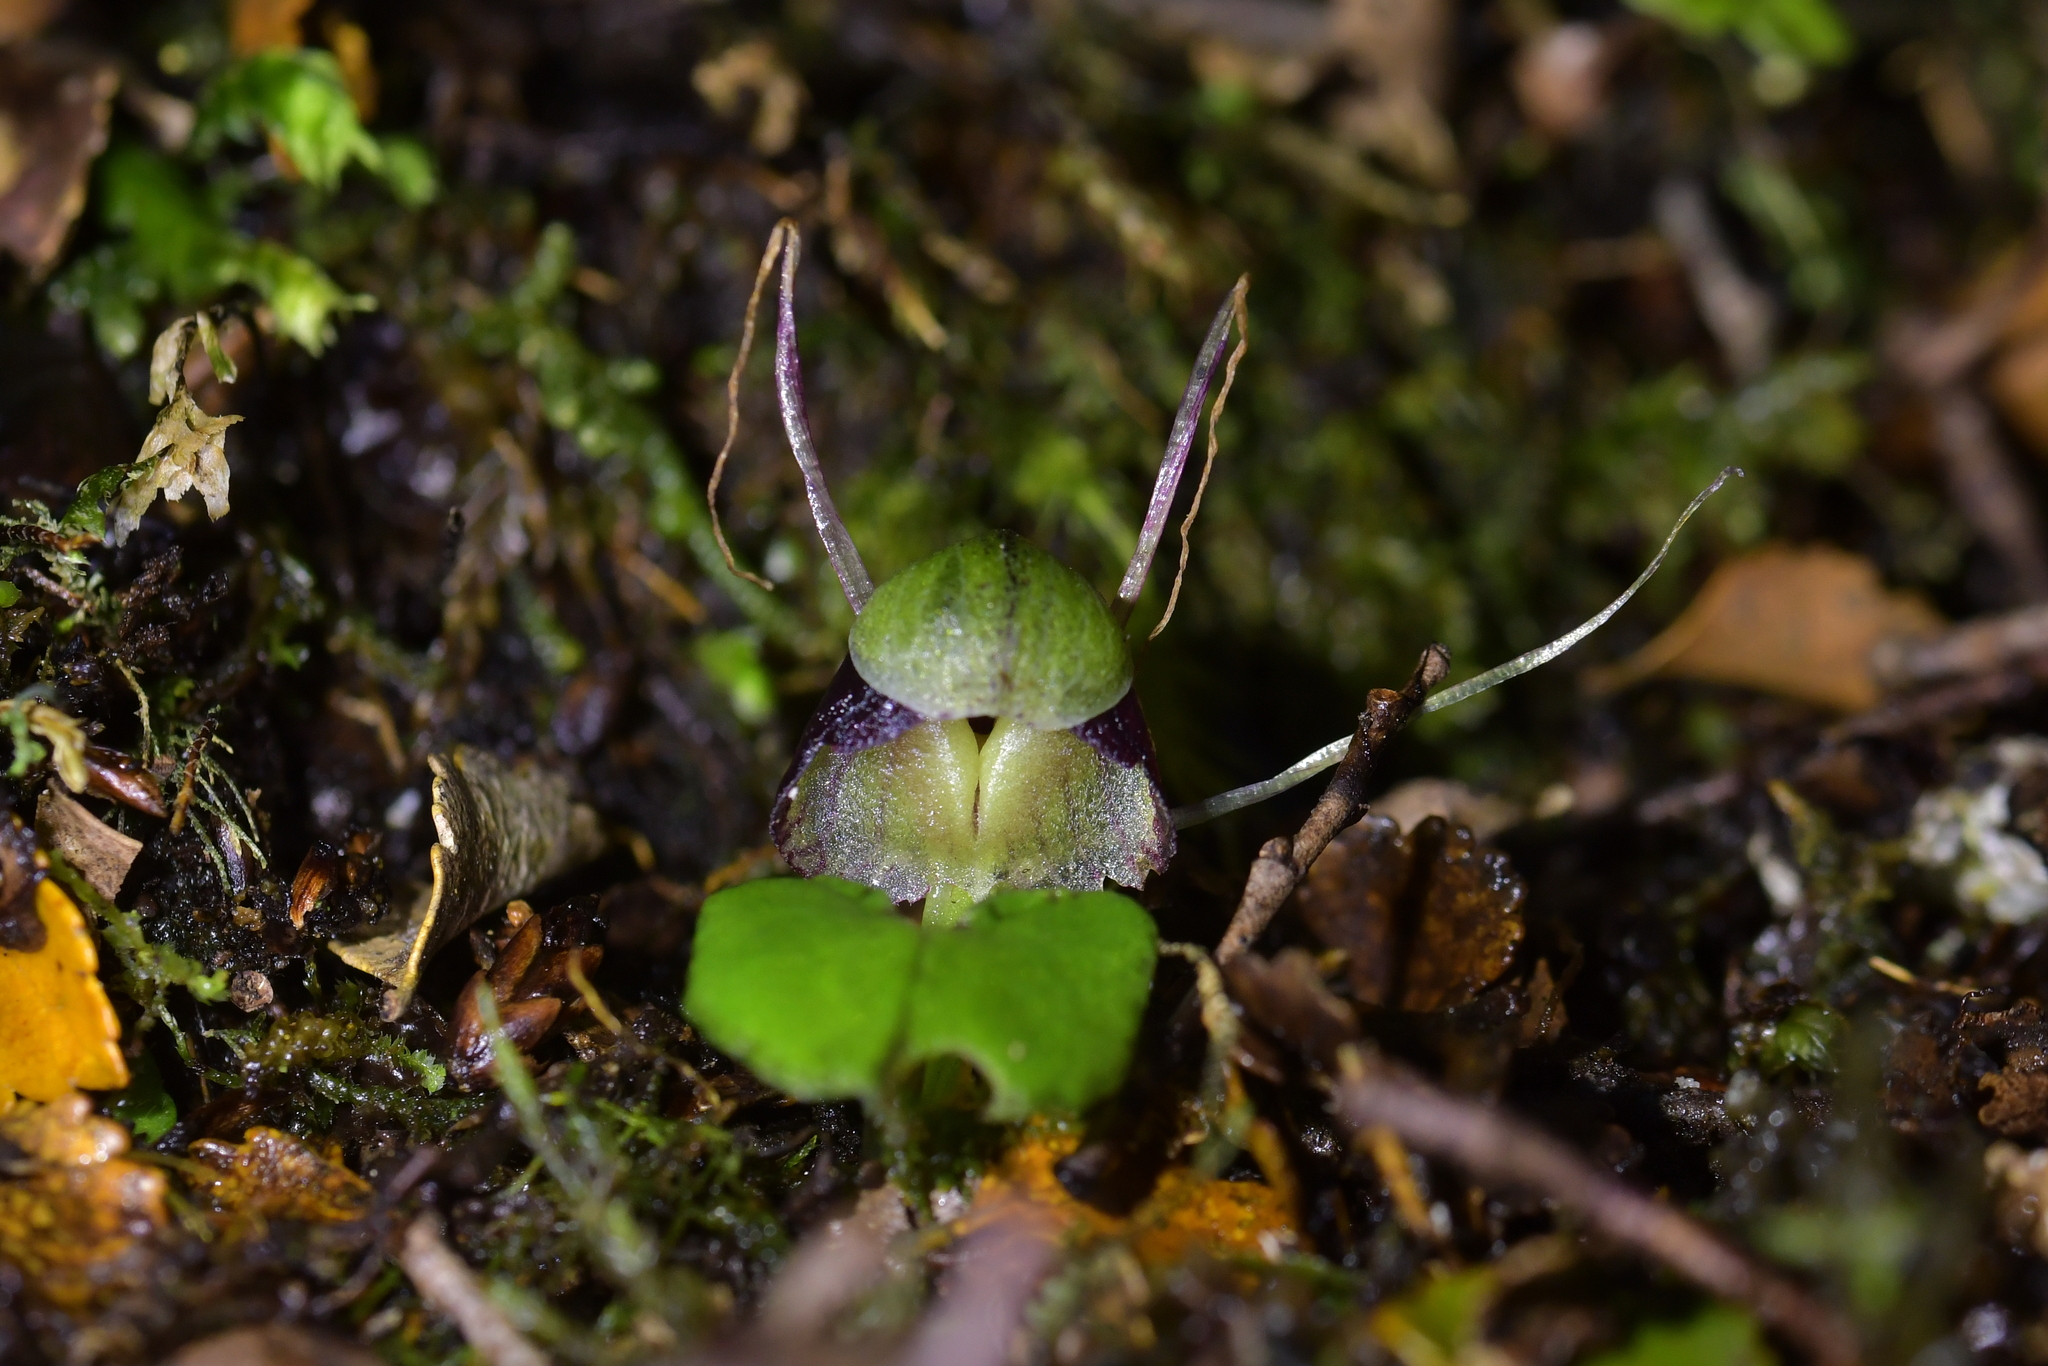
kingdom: Plantae
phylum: Tracheophyta
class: Liliopsida
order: Asparagales
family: Orchidaceae
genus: Corybas
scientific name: Corybas vitreus
